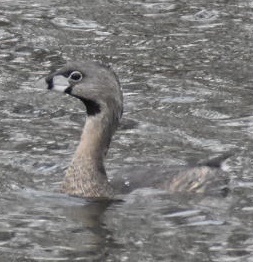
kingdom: Animalia
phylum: Chordata
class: Aves
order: Podicipediformes
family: Podicipedidae
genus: Podilymbus
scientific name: Podilymbus podiceps
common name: Pied-billed grebe
